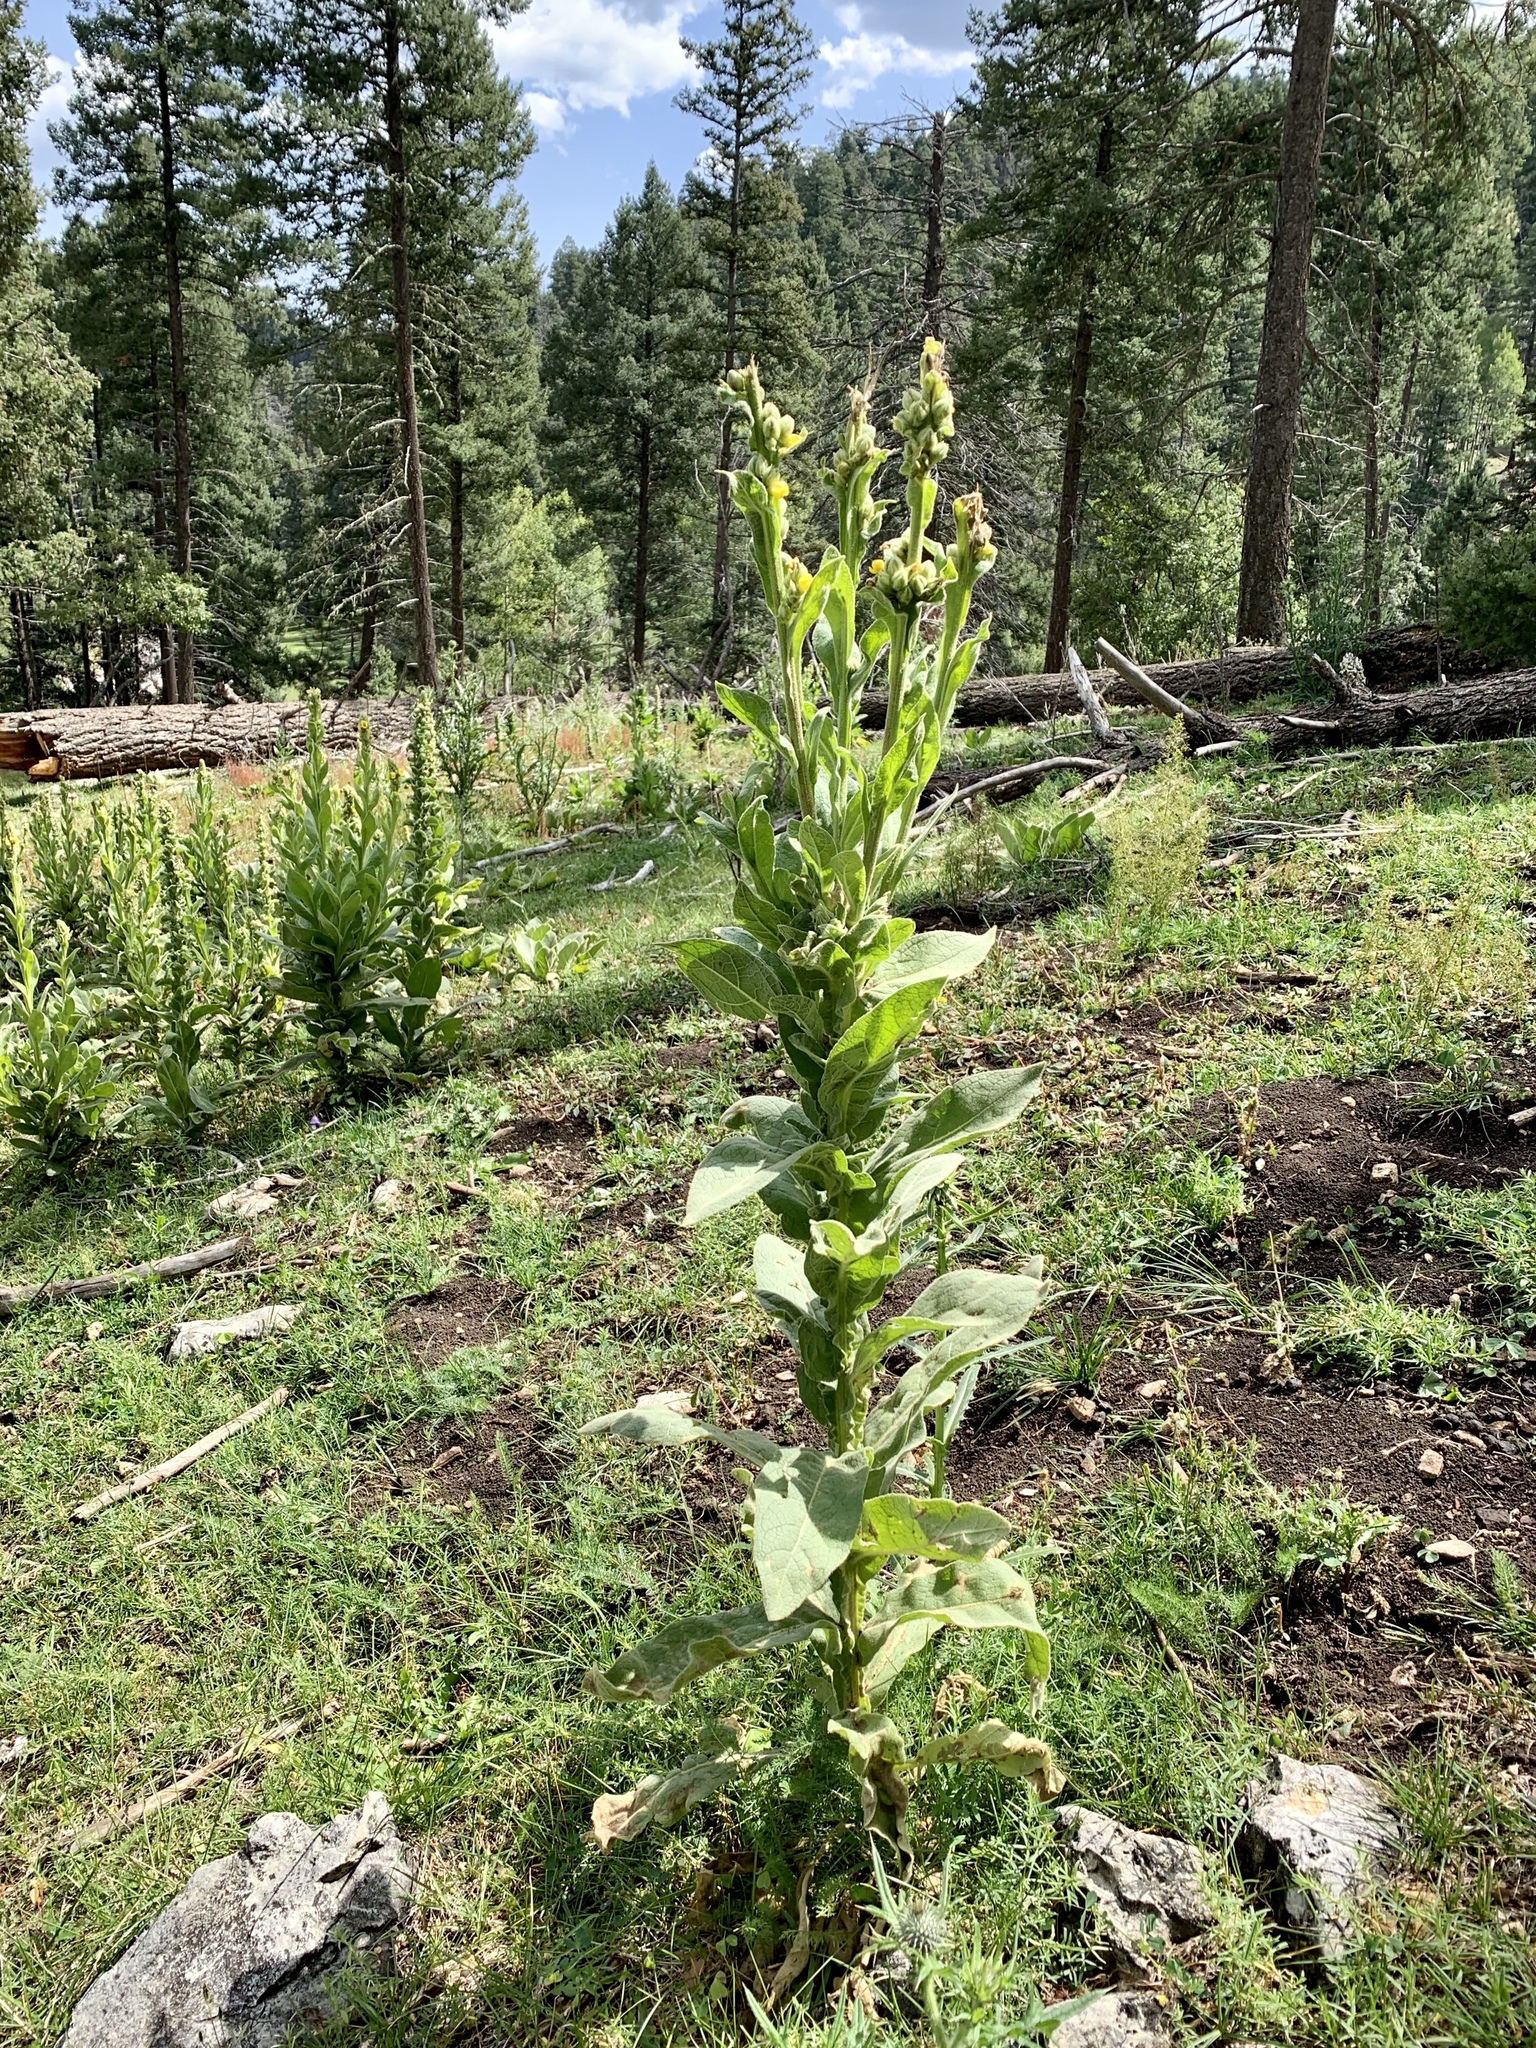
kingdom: Plantae
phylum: Tracheophyta
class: Magnoliopsida
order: Lamiales
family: Scrophulariaceae
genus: Verbascum
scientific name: Verbascum thapsus
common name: Common mullein
